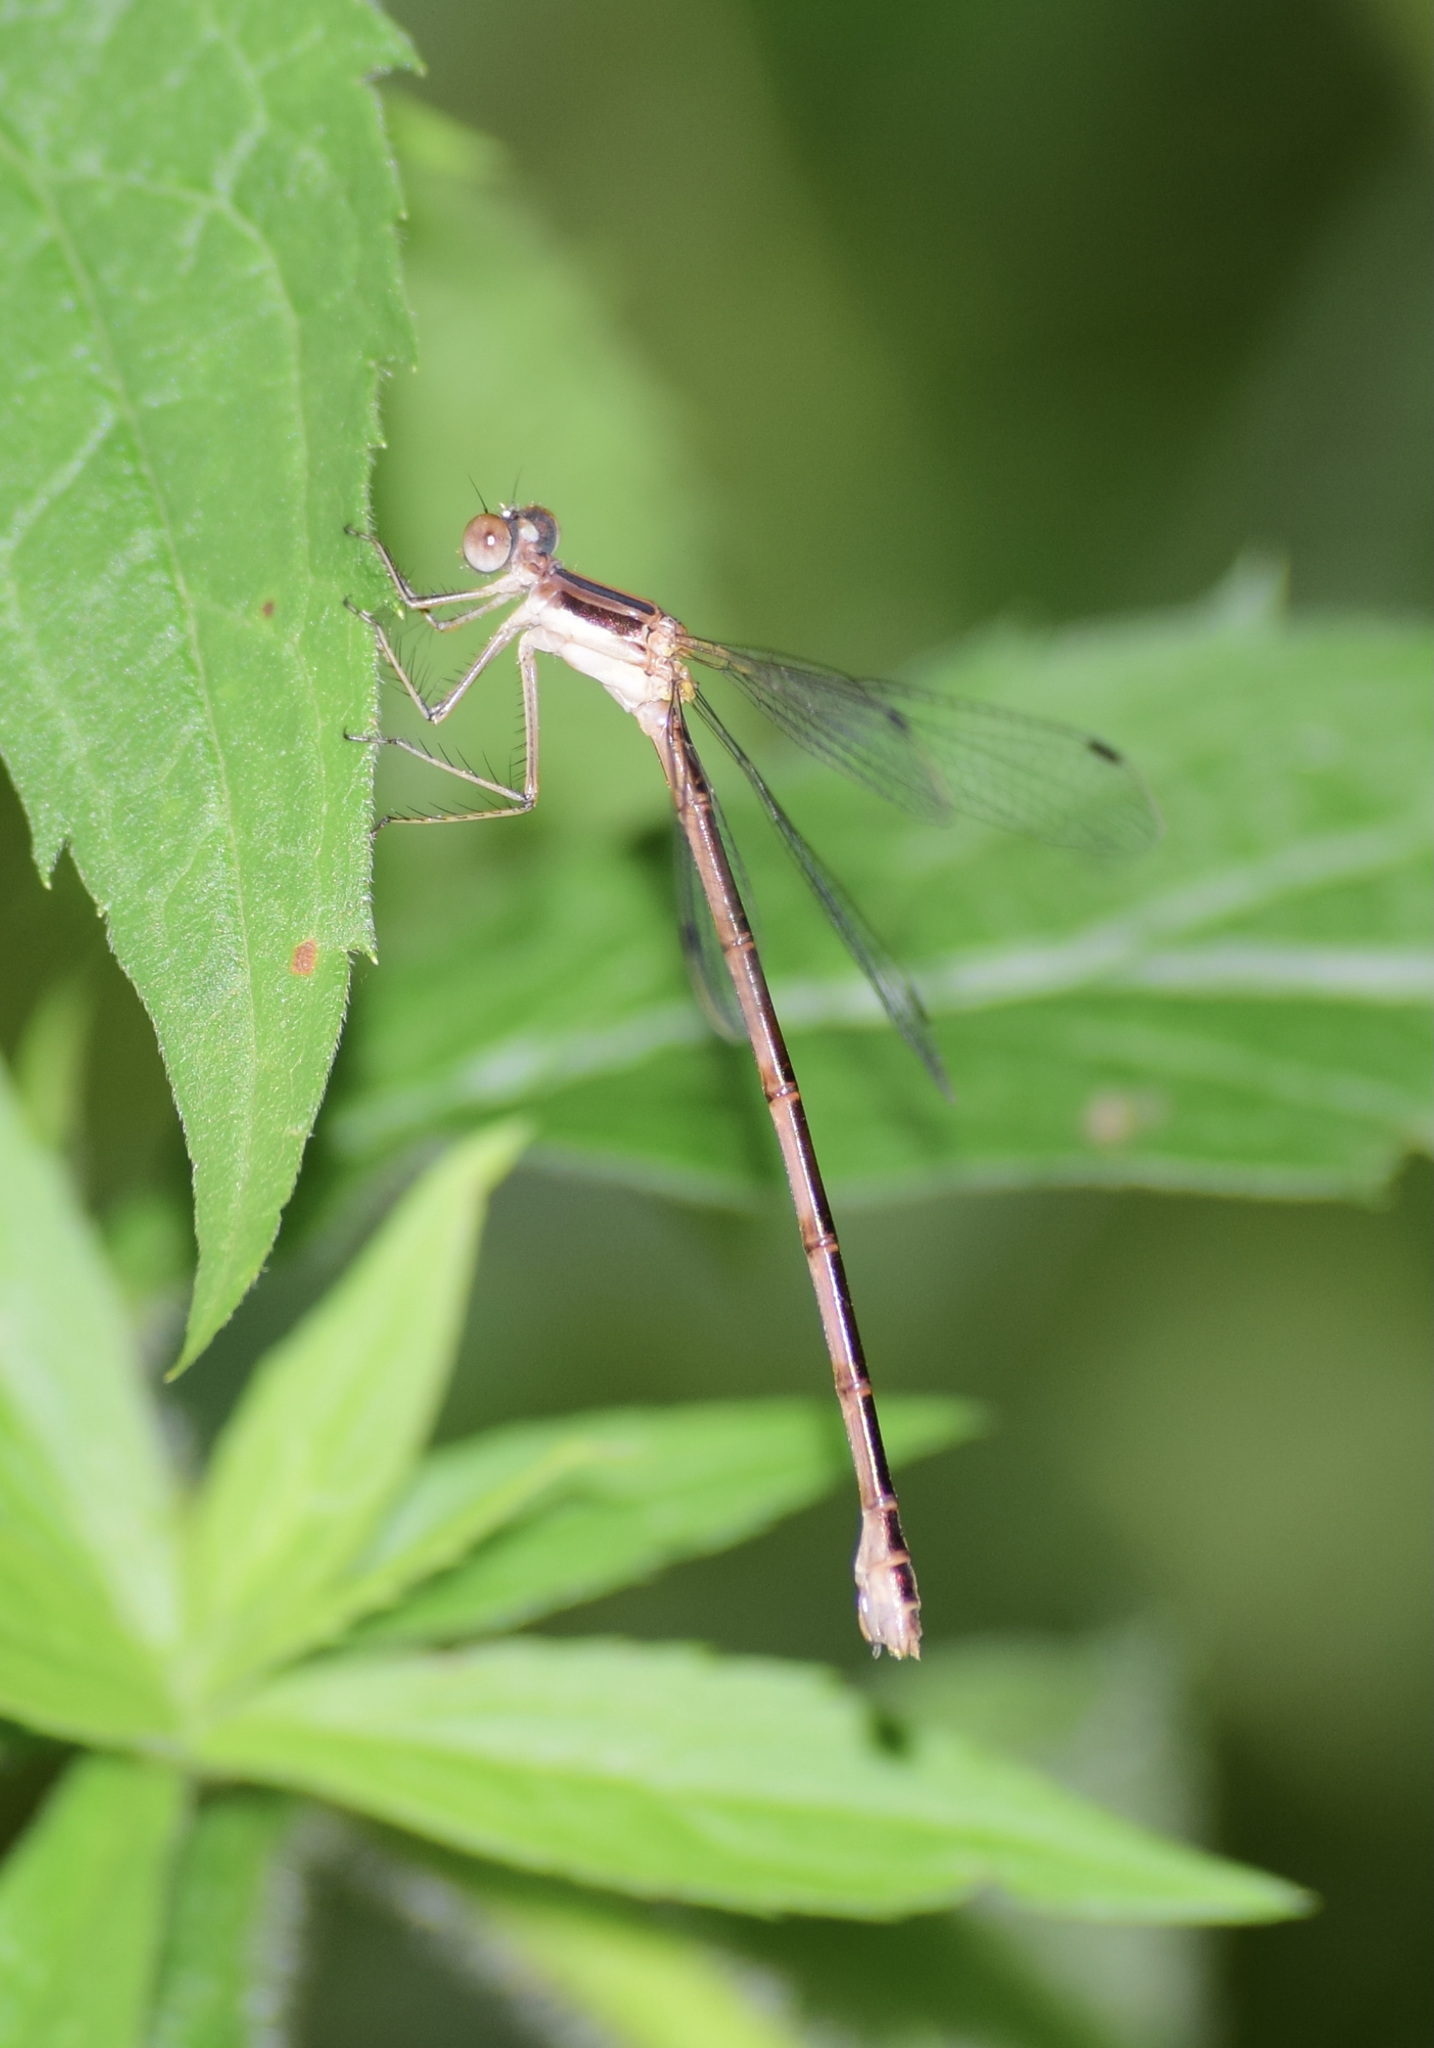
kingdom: Animalia
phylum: Arthropoda
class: Insecta
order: Odonata
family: Lestidae
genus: Lestes
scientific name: Lestes rectangularis
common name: Slender spreadwing
